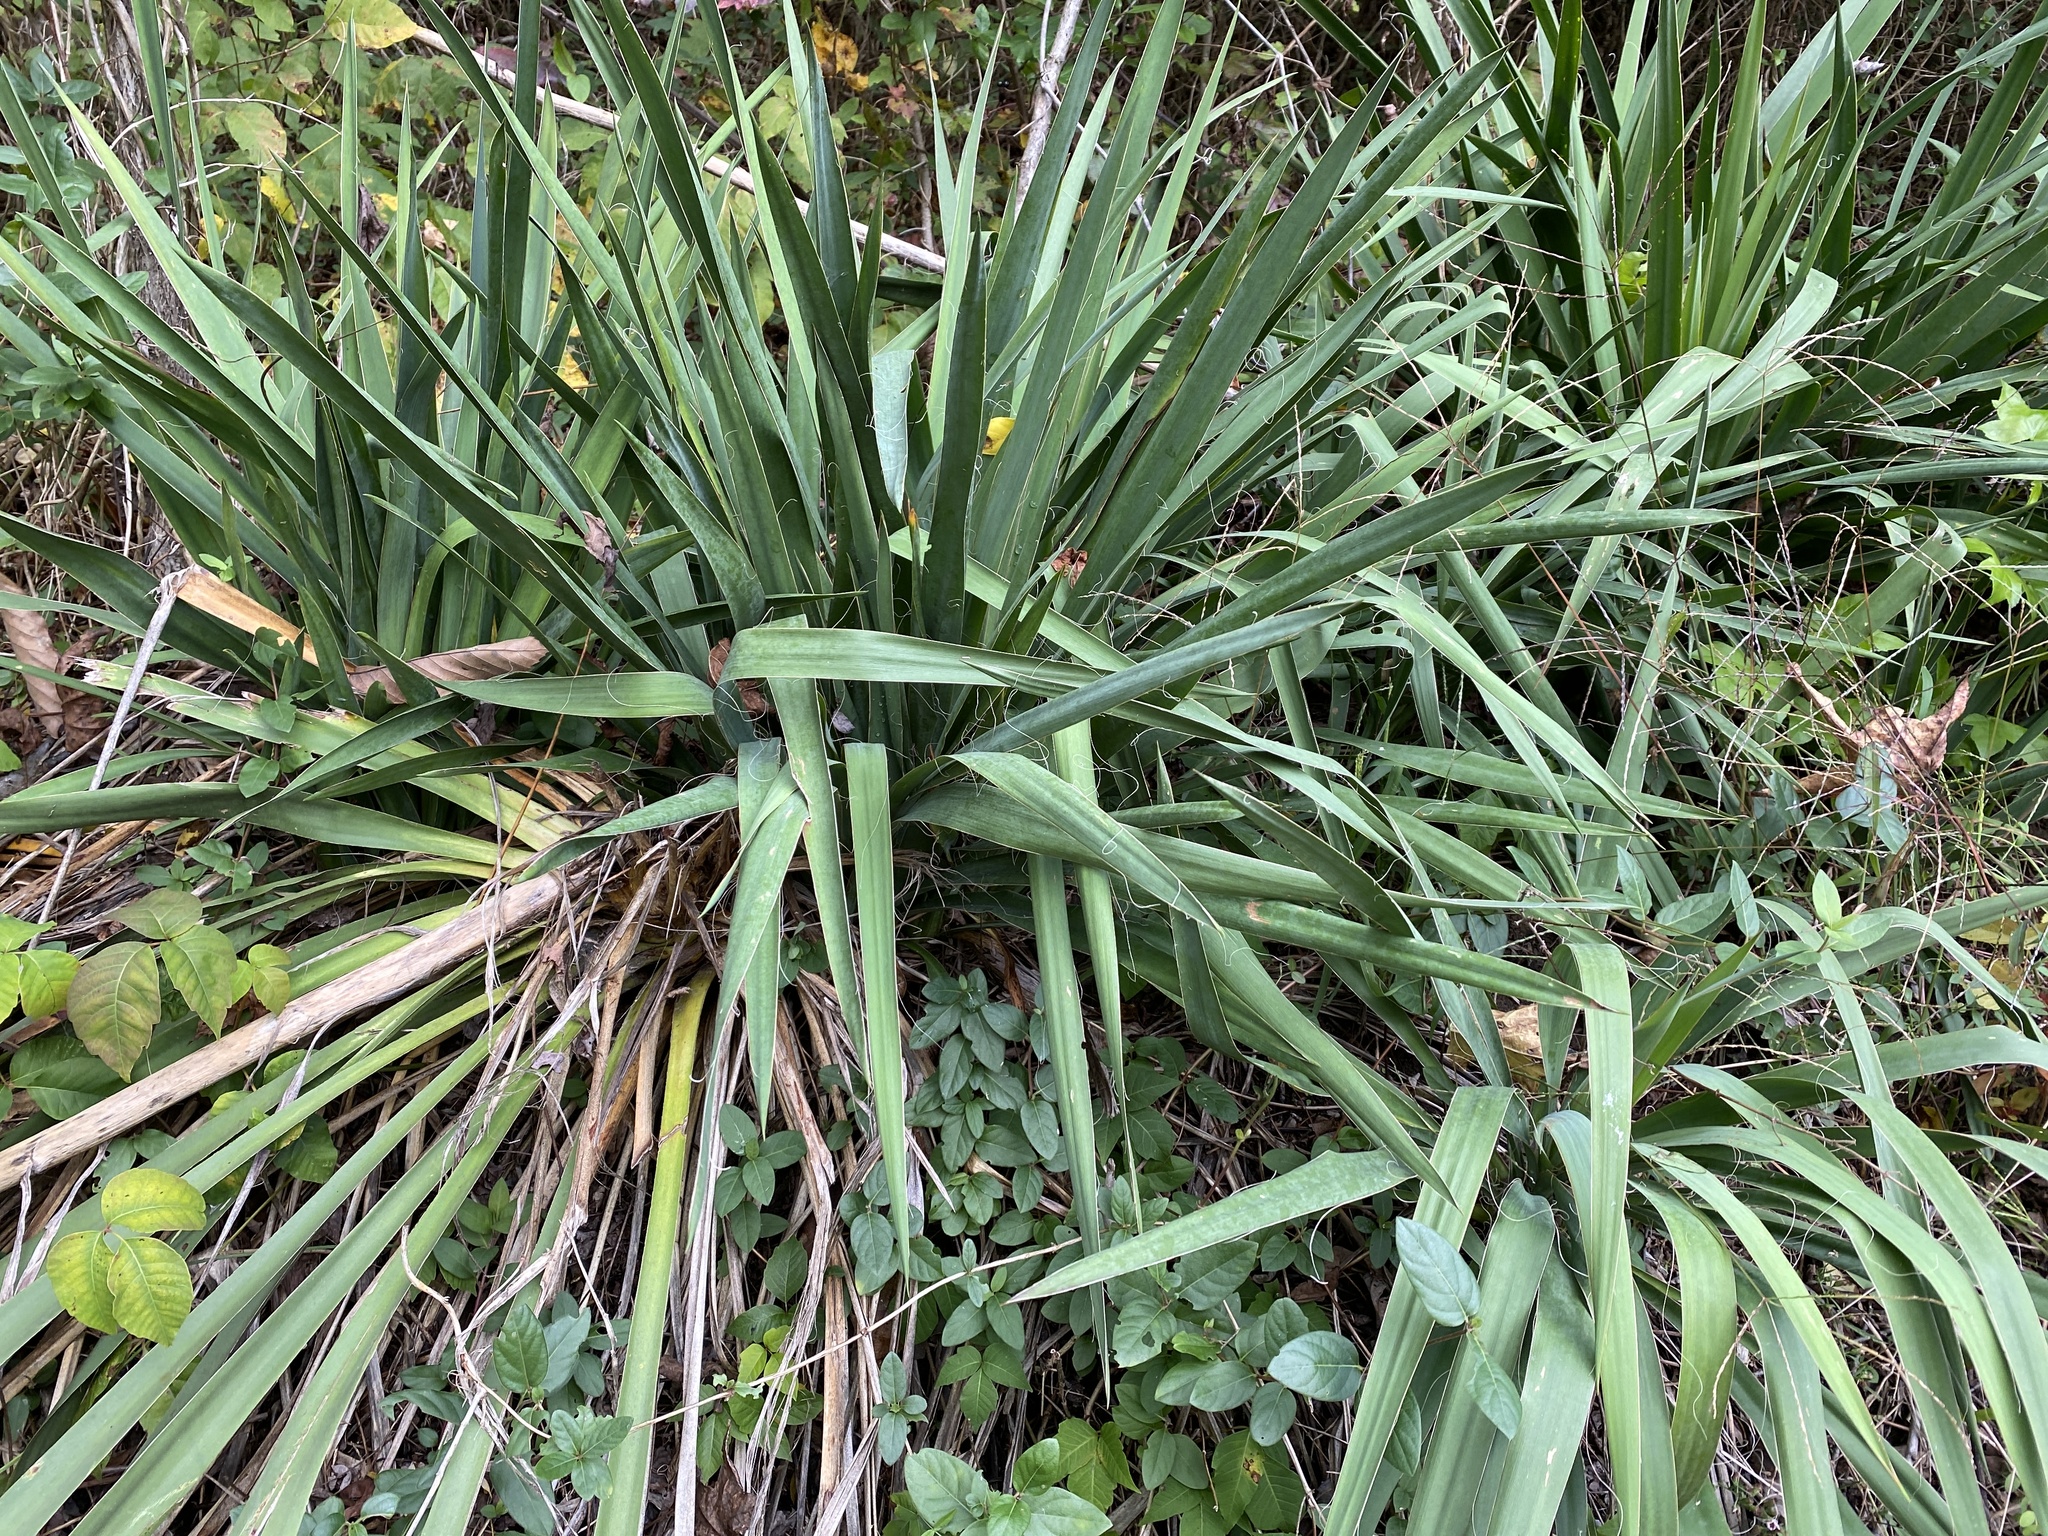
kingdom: Plantae
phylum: Tracheophyta
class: Liliopsida
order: Asparagales
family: Asparagaceae
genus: Yucca
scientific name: Yucca filamentosa
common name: Adam's-needle
